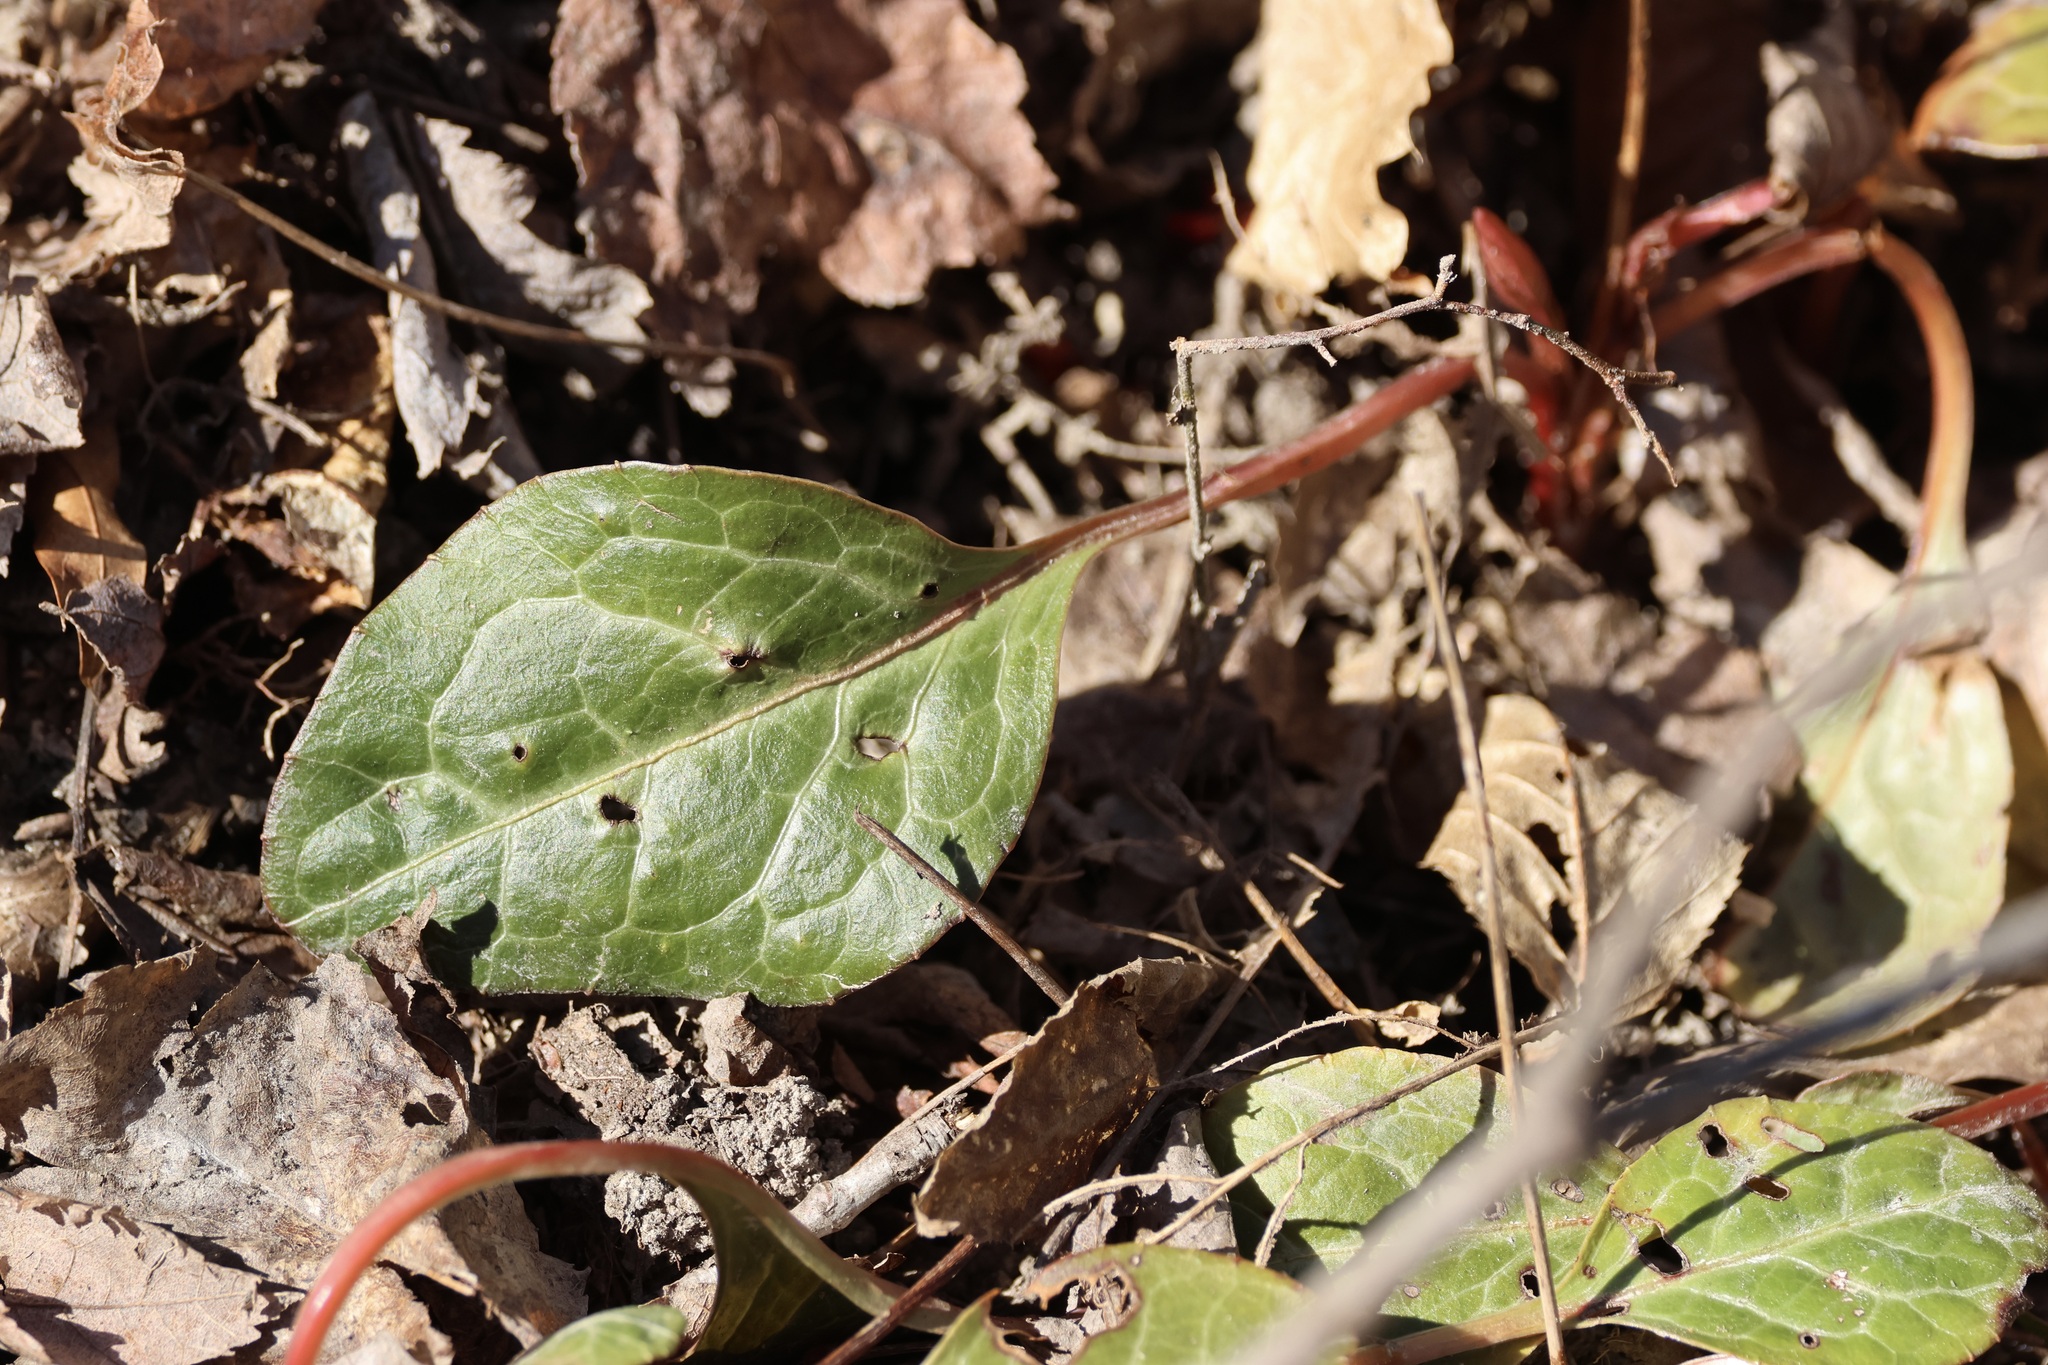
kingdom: Plantae
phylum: Tracheophyta
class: Magnoliopsida
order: Ericales
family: Ericaceae
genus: Pyrola
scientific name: Pyrola americana
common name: American wintergreen
